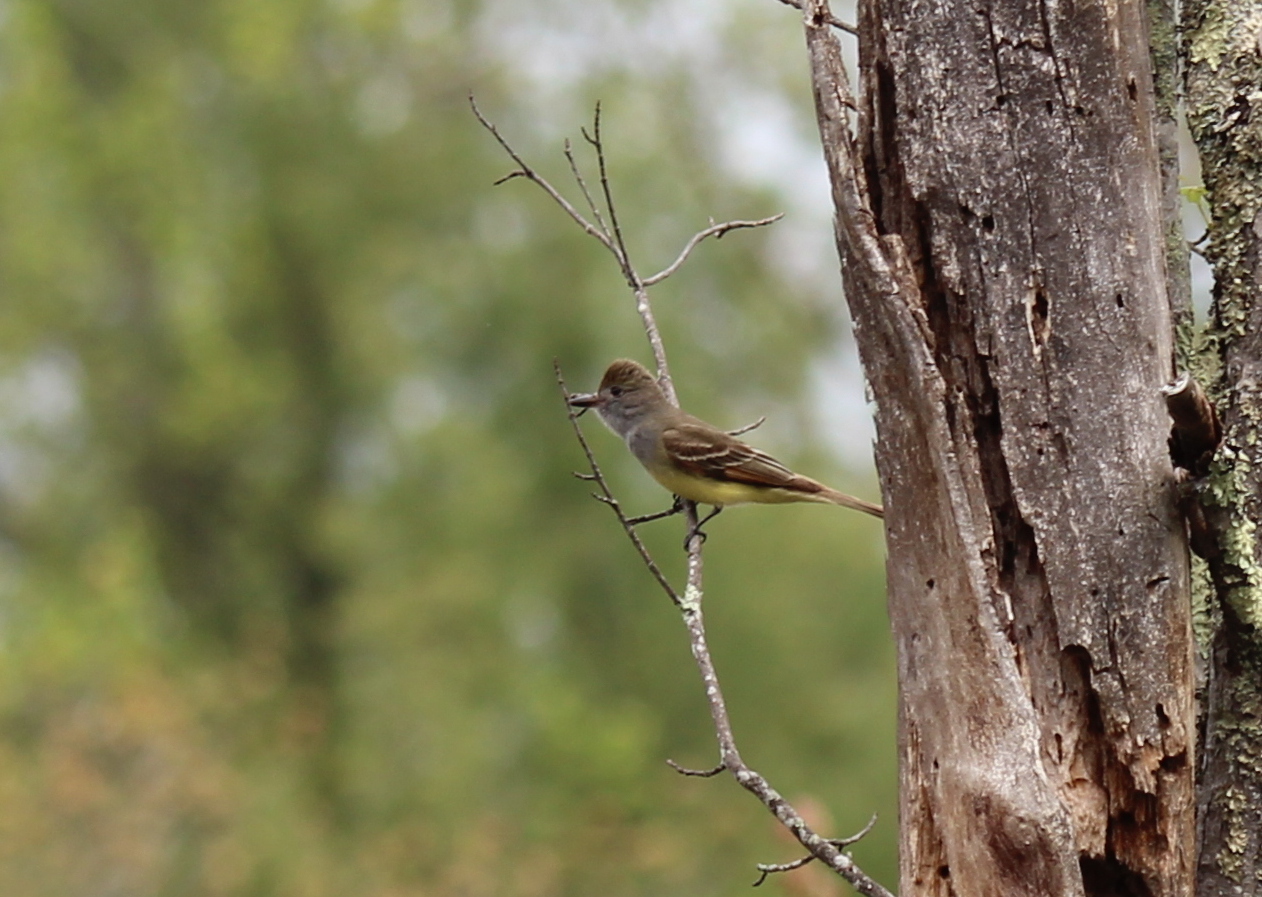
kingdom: Animalia
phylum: Chordata
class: Aves
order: Passeriformes
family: Tyrannidae
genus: Myiarchus
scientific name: Myiarchus crinitus
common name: Great crested flycatcher
